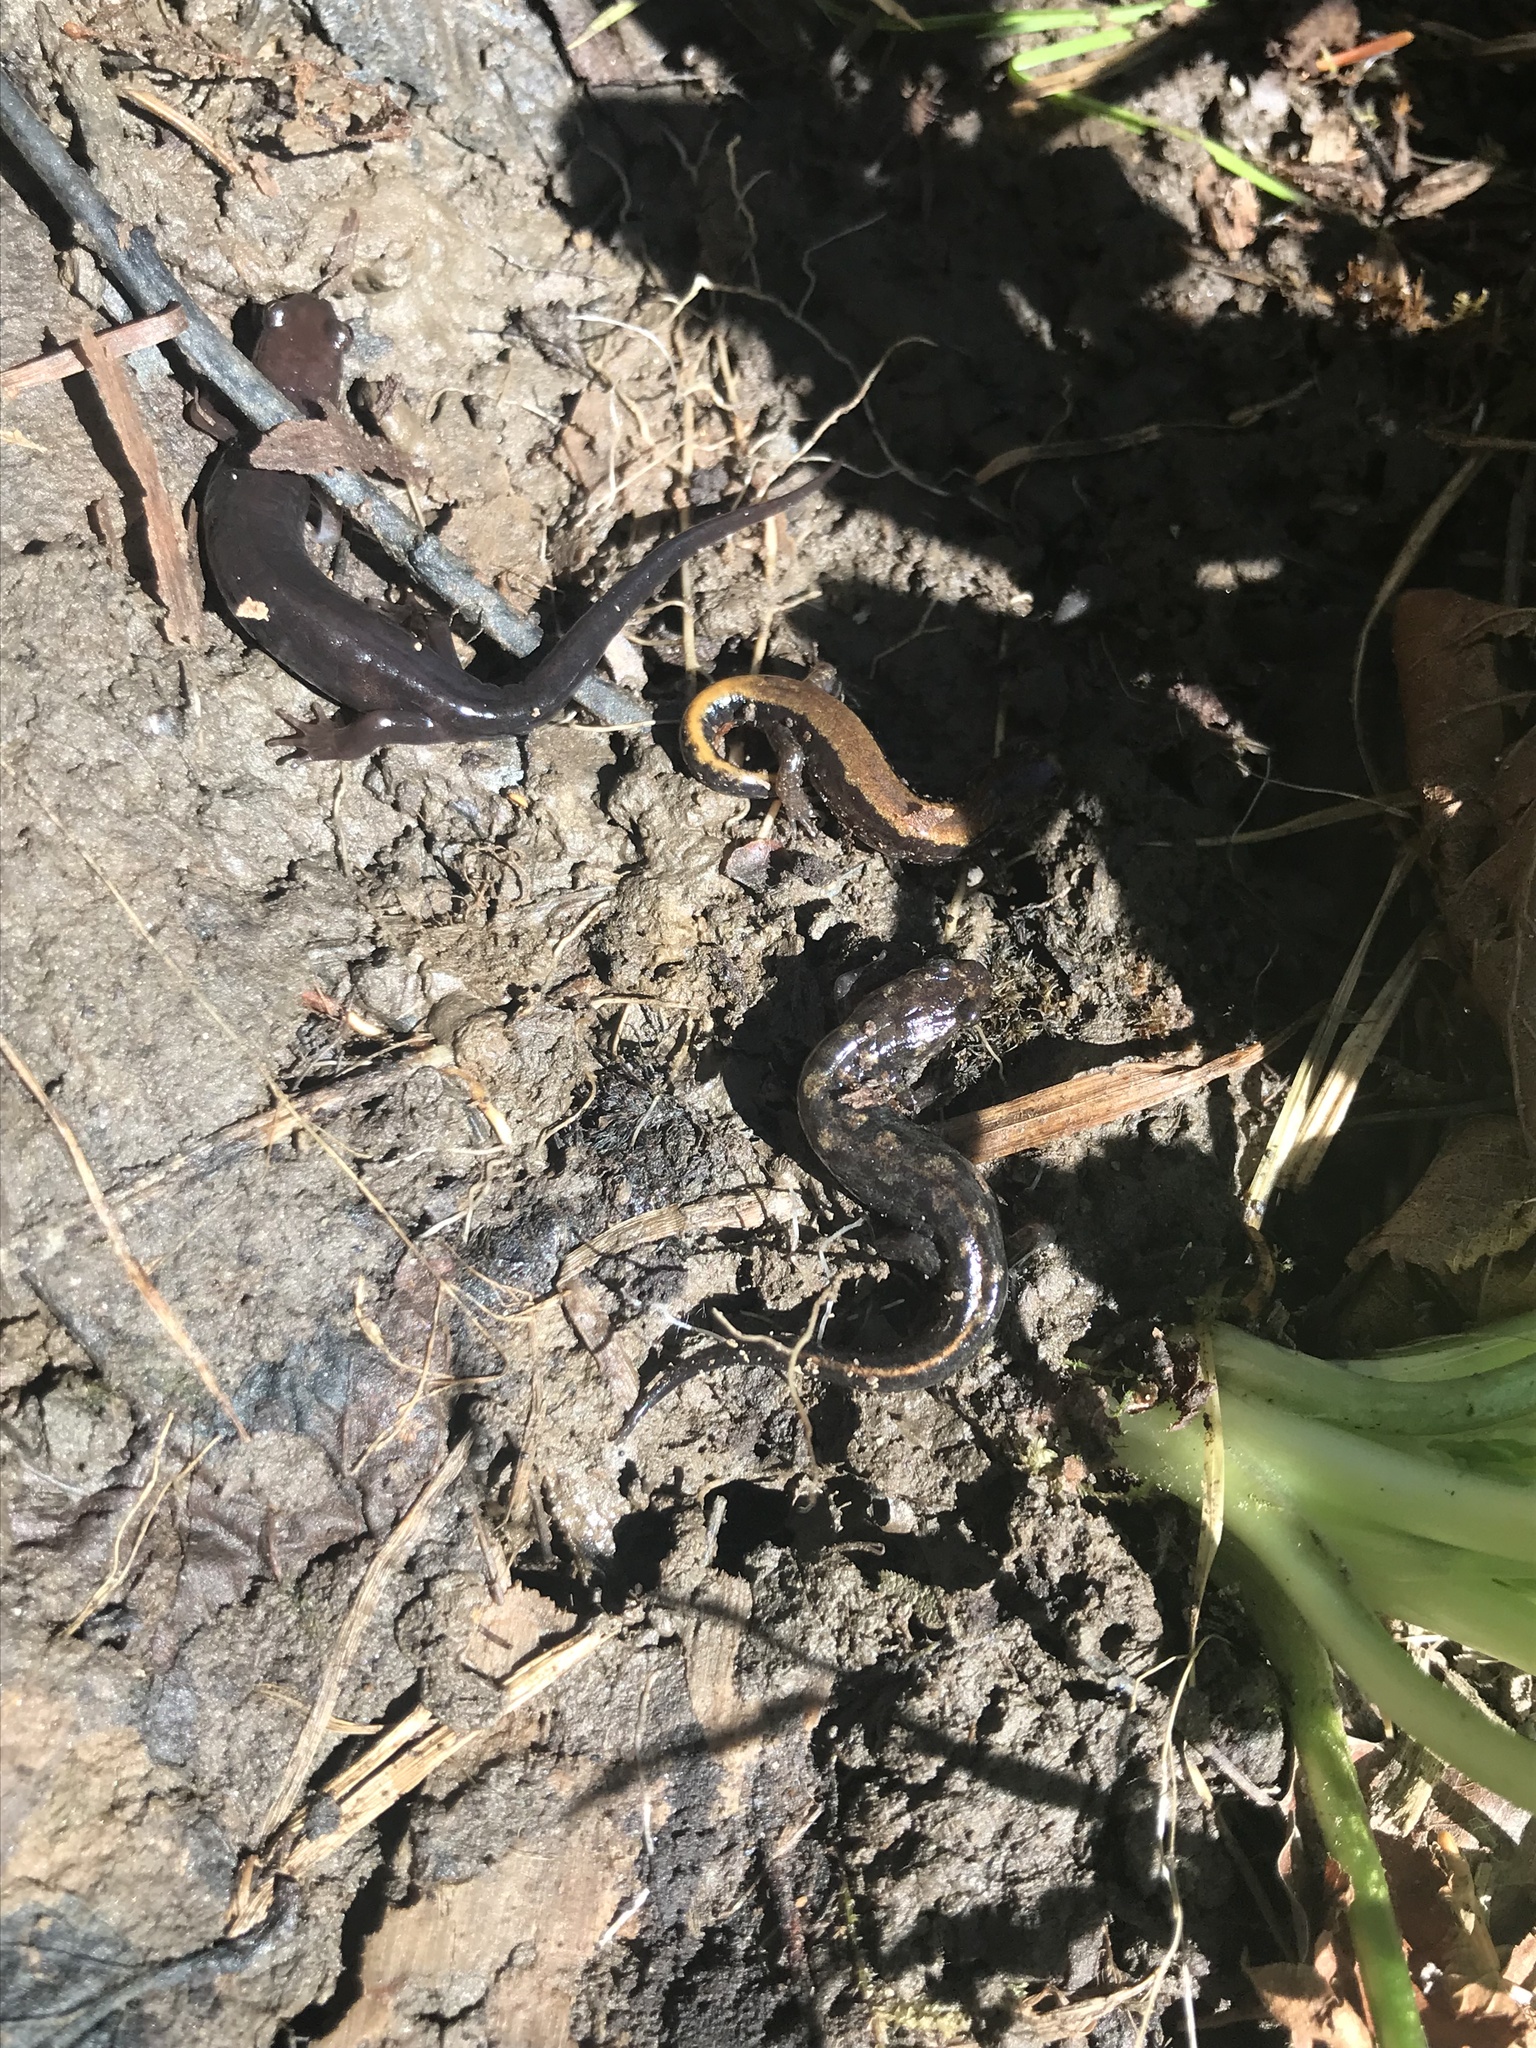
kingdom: Animalia
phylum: Chordata
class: Amphibia
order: Caudata
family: Plethodontidae
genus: Desmognathus
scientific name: Desmognathus imitator
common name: Imitator salamander
